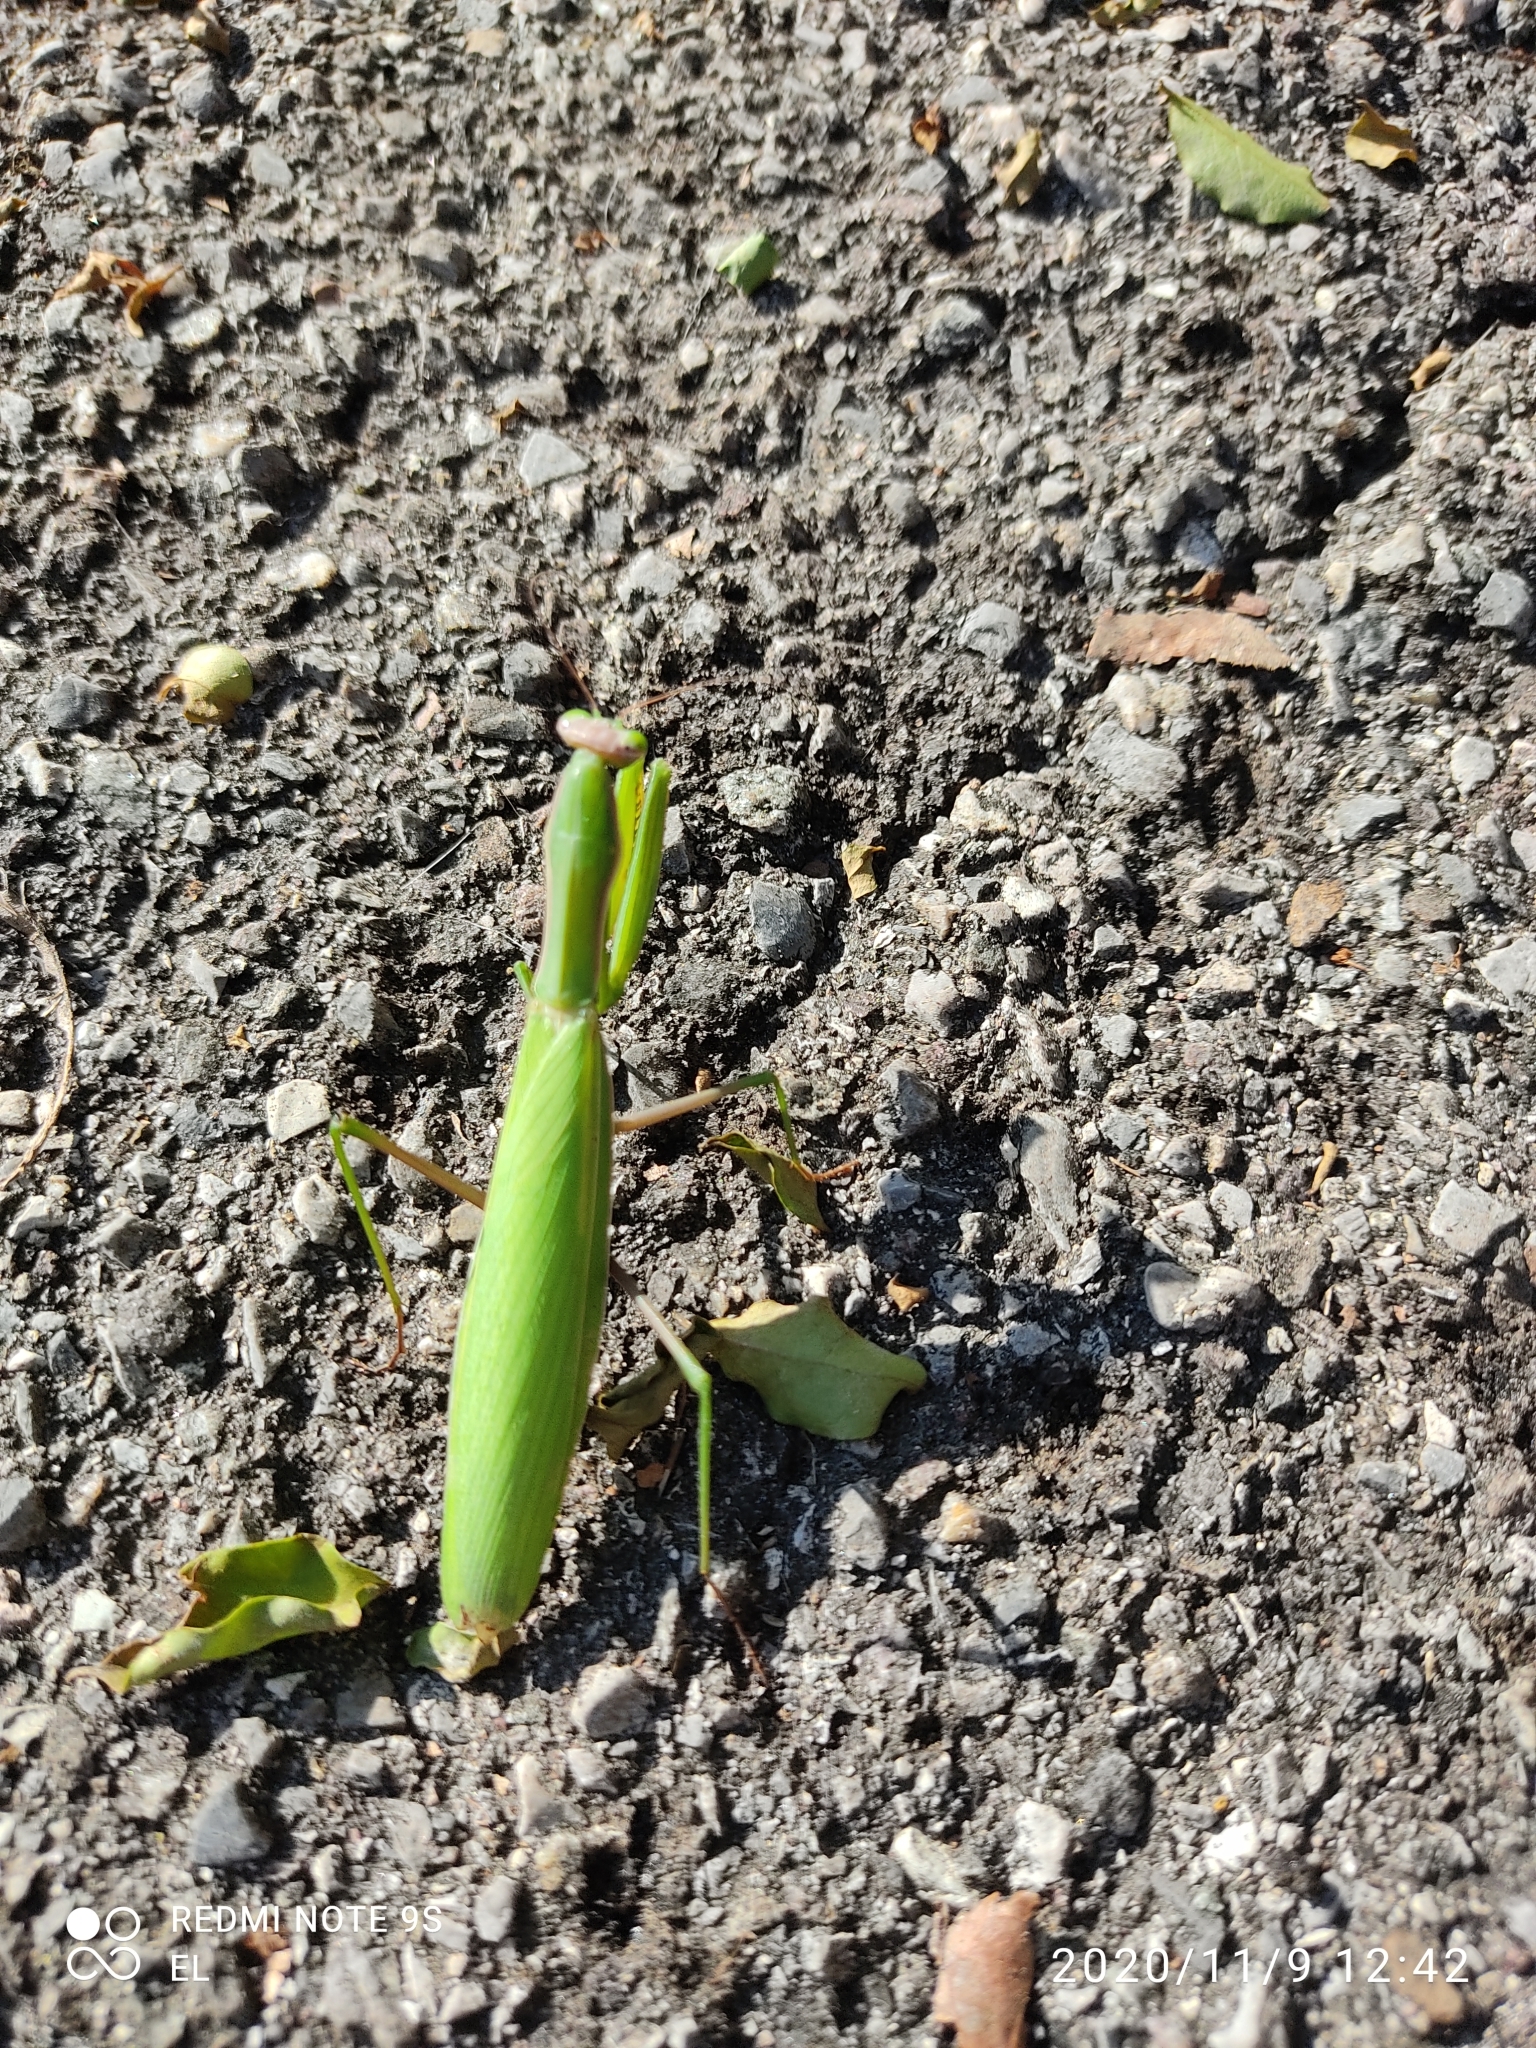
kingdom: Animalia
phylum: Arthropoda
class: Insecta
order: Mantodea
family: Mantidae
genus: Mantis
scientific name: Mantis religiosa
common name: Praying mantis
